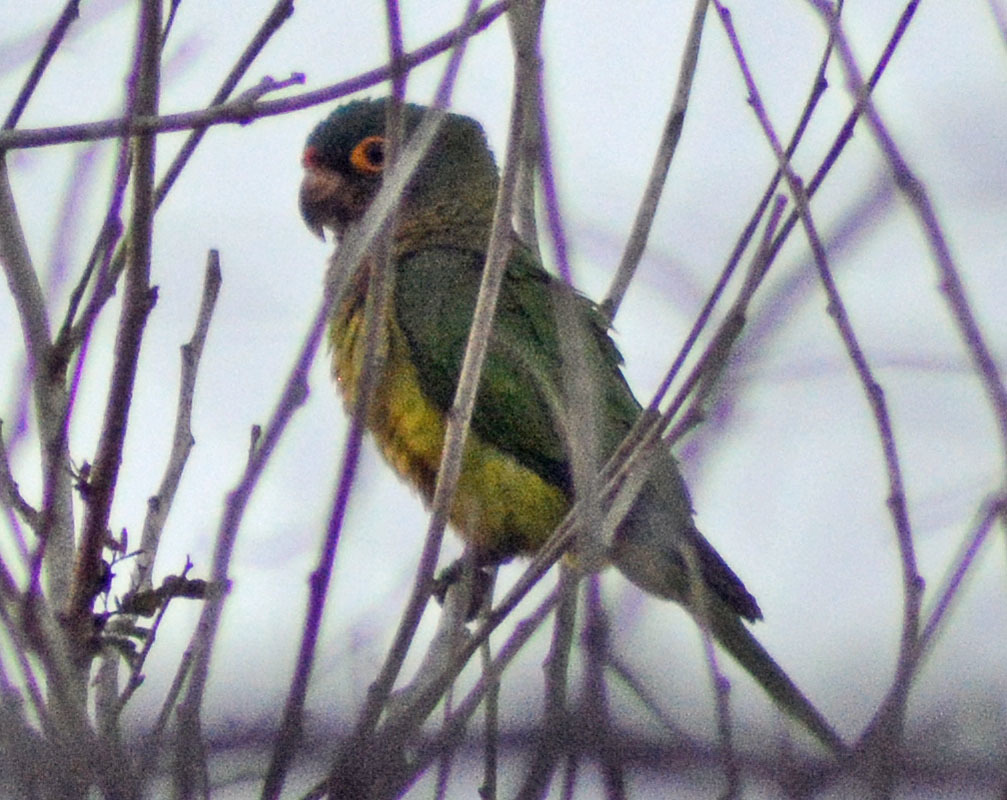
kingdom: Animalia
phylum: Chordata
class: Aves
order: Psittaciformes
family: Psittacidae
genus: Aratinga
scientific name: Aratinga canicularis
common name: Orange-fronted parakeet
